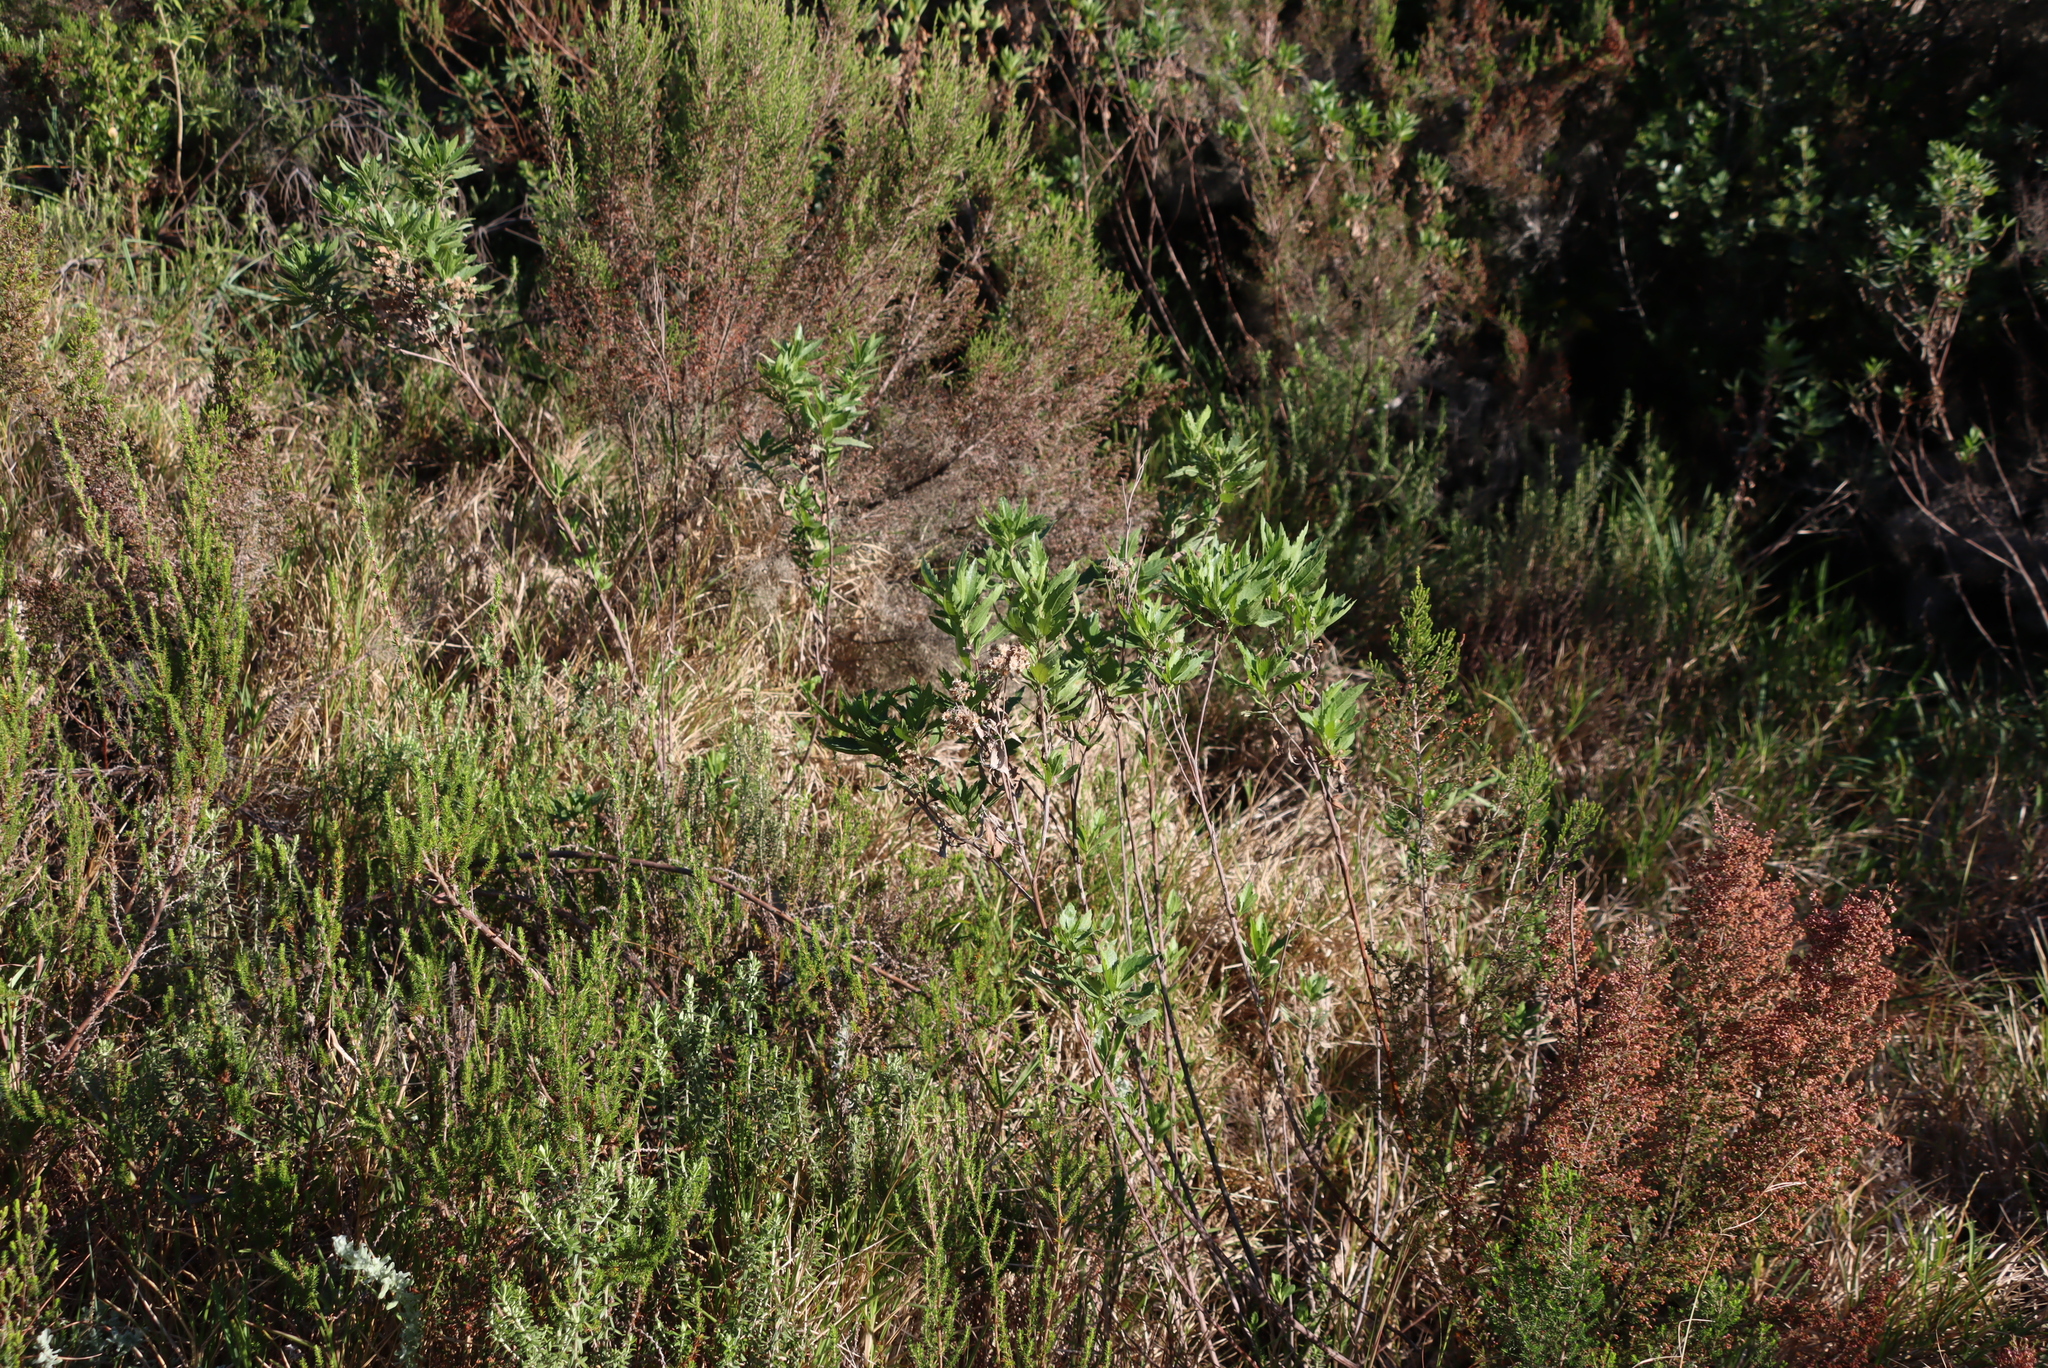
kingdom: Plantae
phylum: Tracheophyta
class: Magnoliopsida
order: Asterales
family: Asteraceae
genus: Nidorella
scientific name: Nidorella ivifolia
